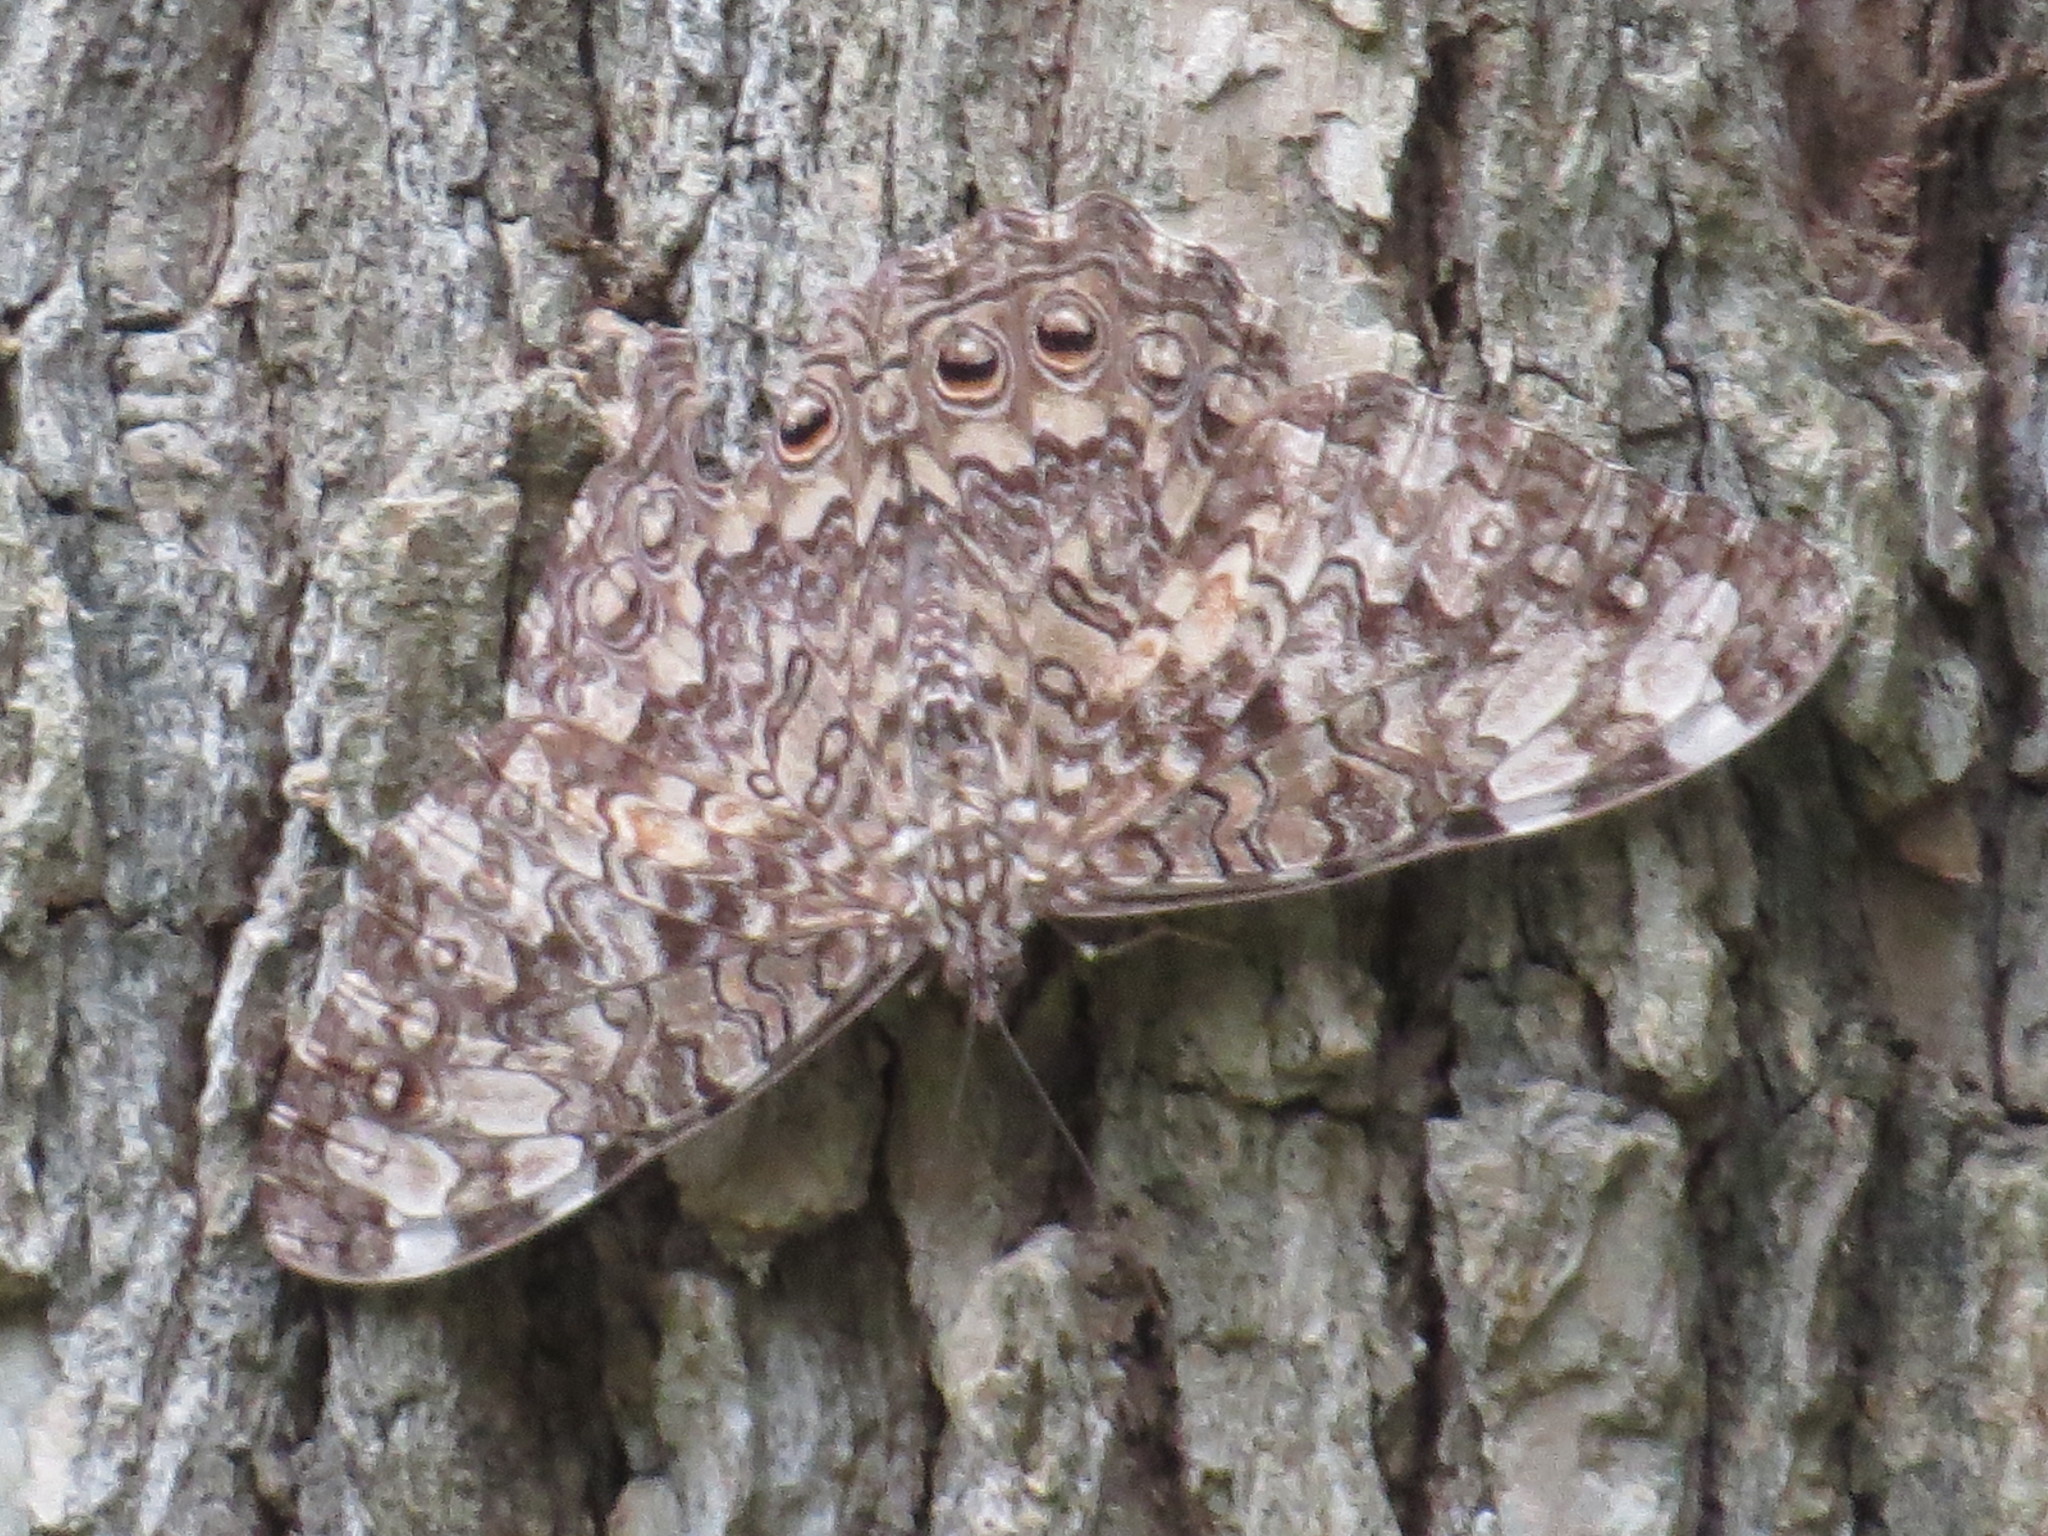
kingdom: Animalia
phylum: Arthropoda
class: Insecta
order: Lepidoptera
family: Nymphalidae
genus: Hamadryas
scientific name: Hamadryas februa
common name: Gray cracker
